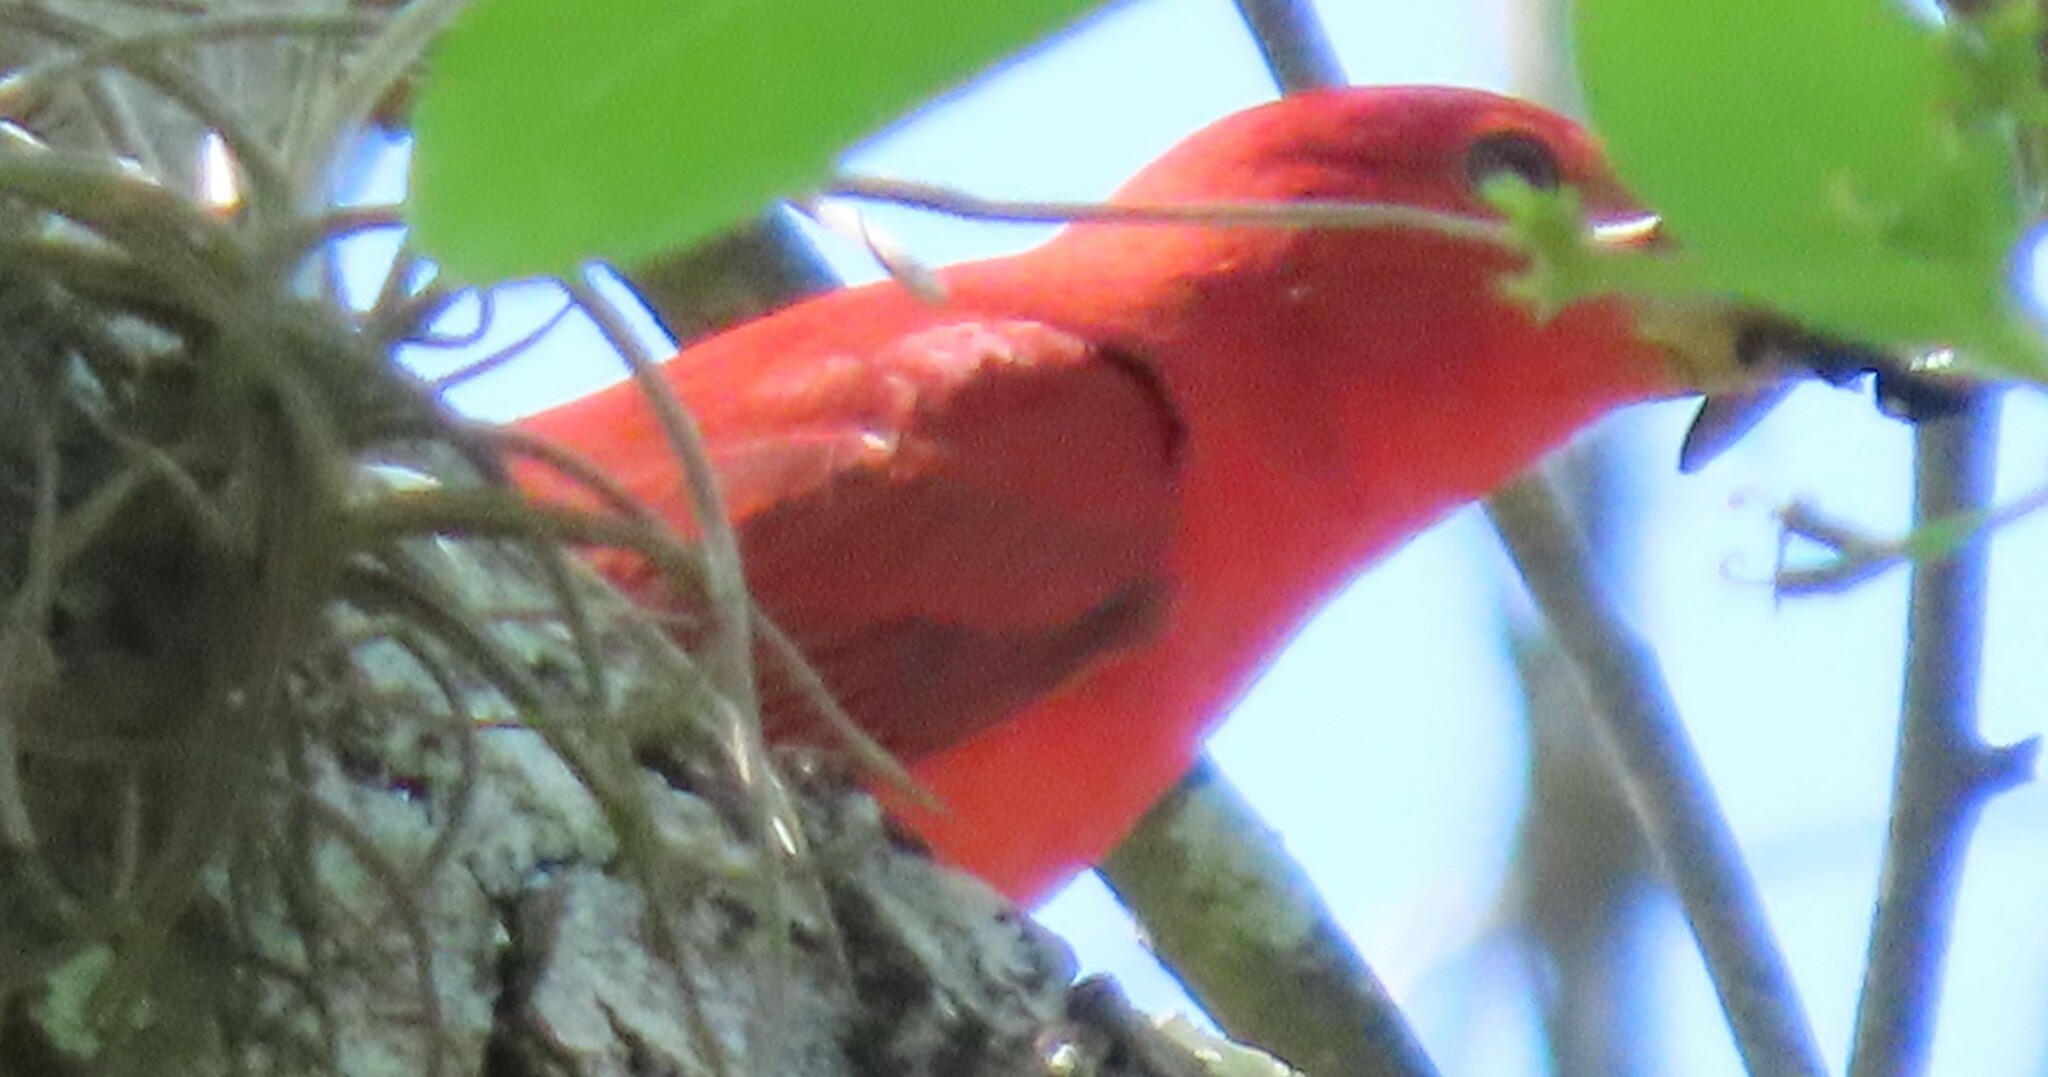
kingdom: Animalia
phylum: Chordata
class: Aves
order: Passeriformes
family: Cardinalidae
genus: Piranga
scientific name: Piranga rubra
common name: Summer tanager
